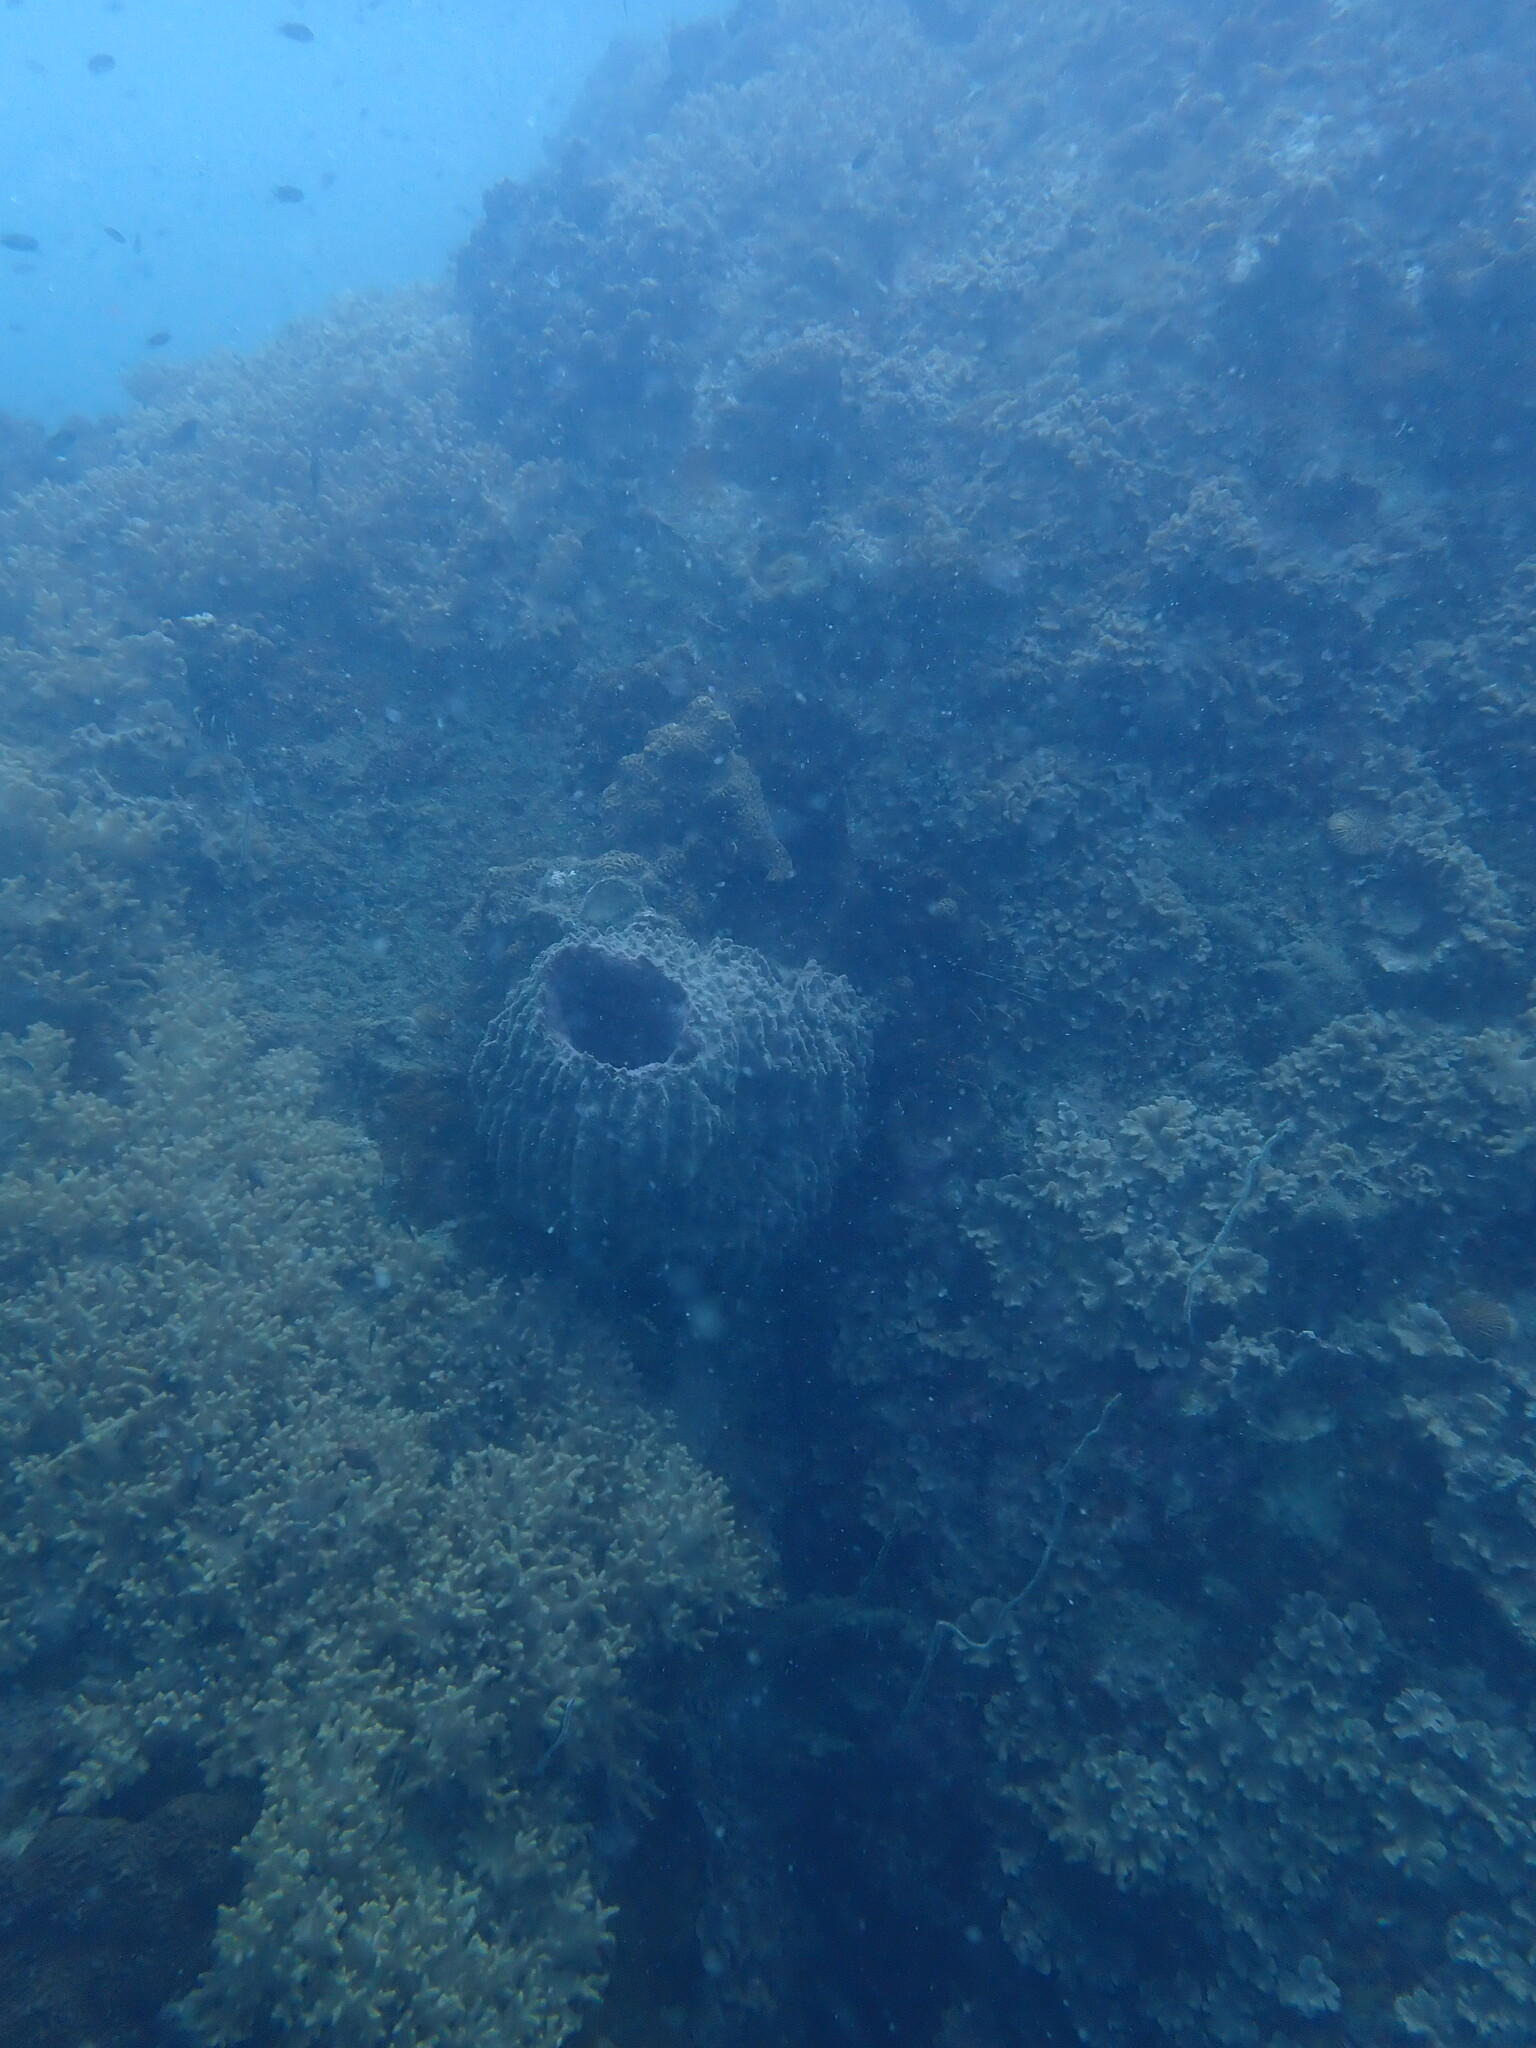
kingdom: Animalia
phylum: Porifera
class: Demospongiae
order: Haplosclerida
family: Petrosiidae
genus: Xestospongia
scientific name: Xestospongia testudinaria
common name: Barrel sponge
